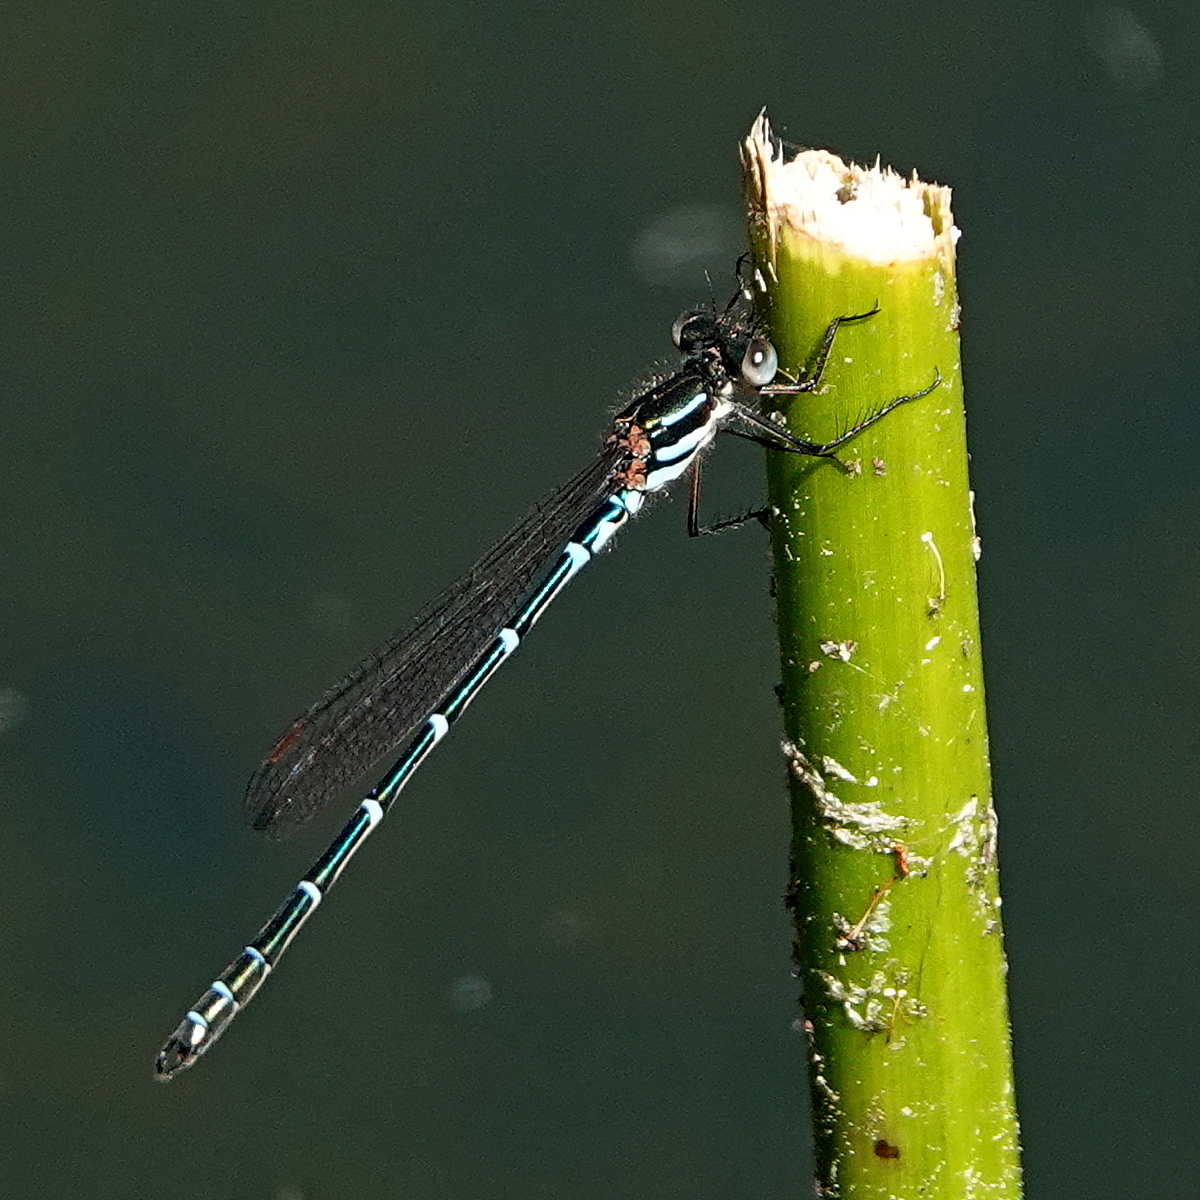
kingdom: Animalia
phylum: Arthropoda
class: Insecta
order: Odonata
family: Lestidae
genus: Austrolestes
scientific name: Austrolestes psyche
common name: Cup ringtail
